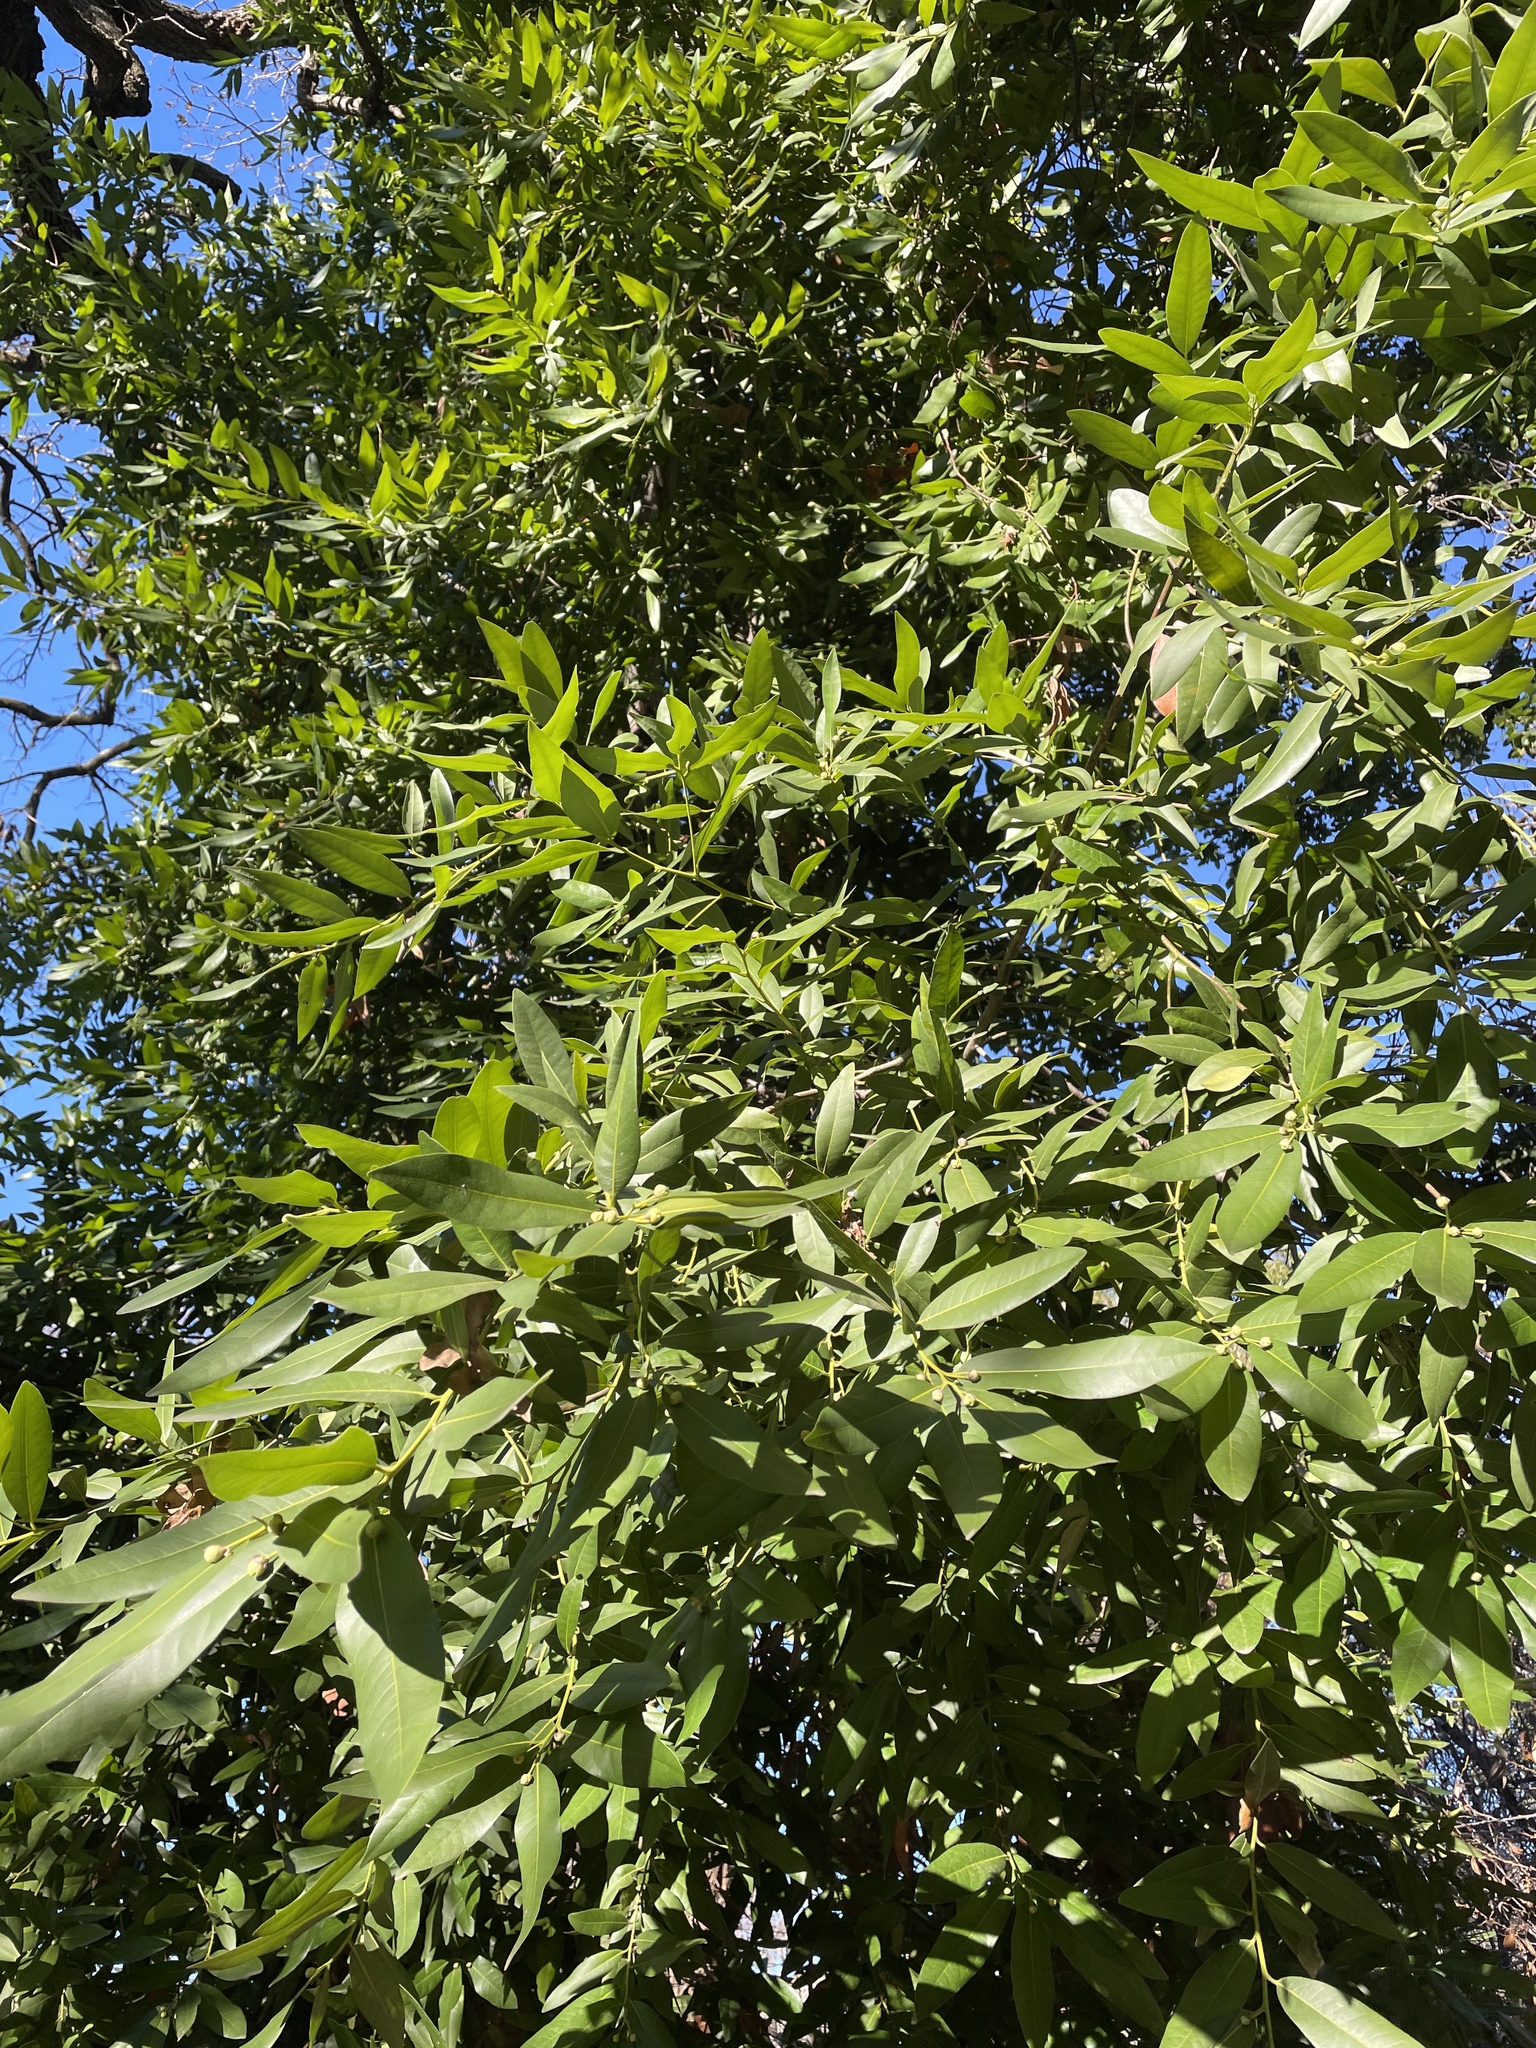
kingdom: Plantae
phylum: Tracheophyta
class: Magnoliopsida
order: Laurales
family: Lauraceae
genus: Umbellularia
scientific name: Umbellularia californica
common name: California bay
